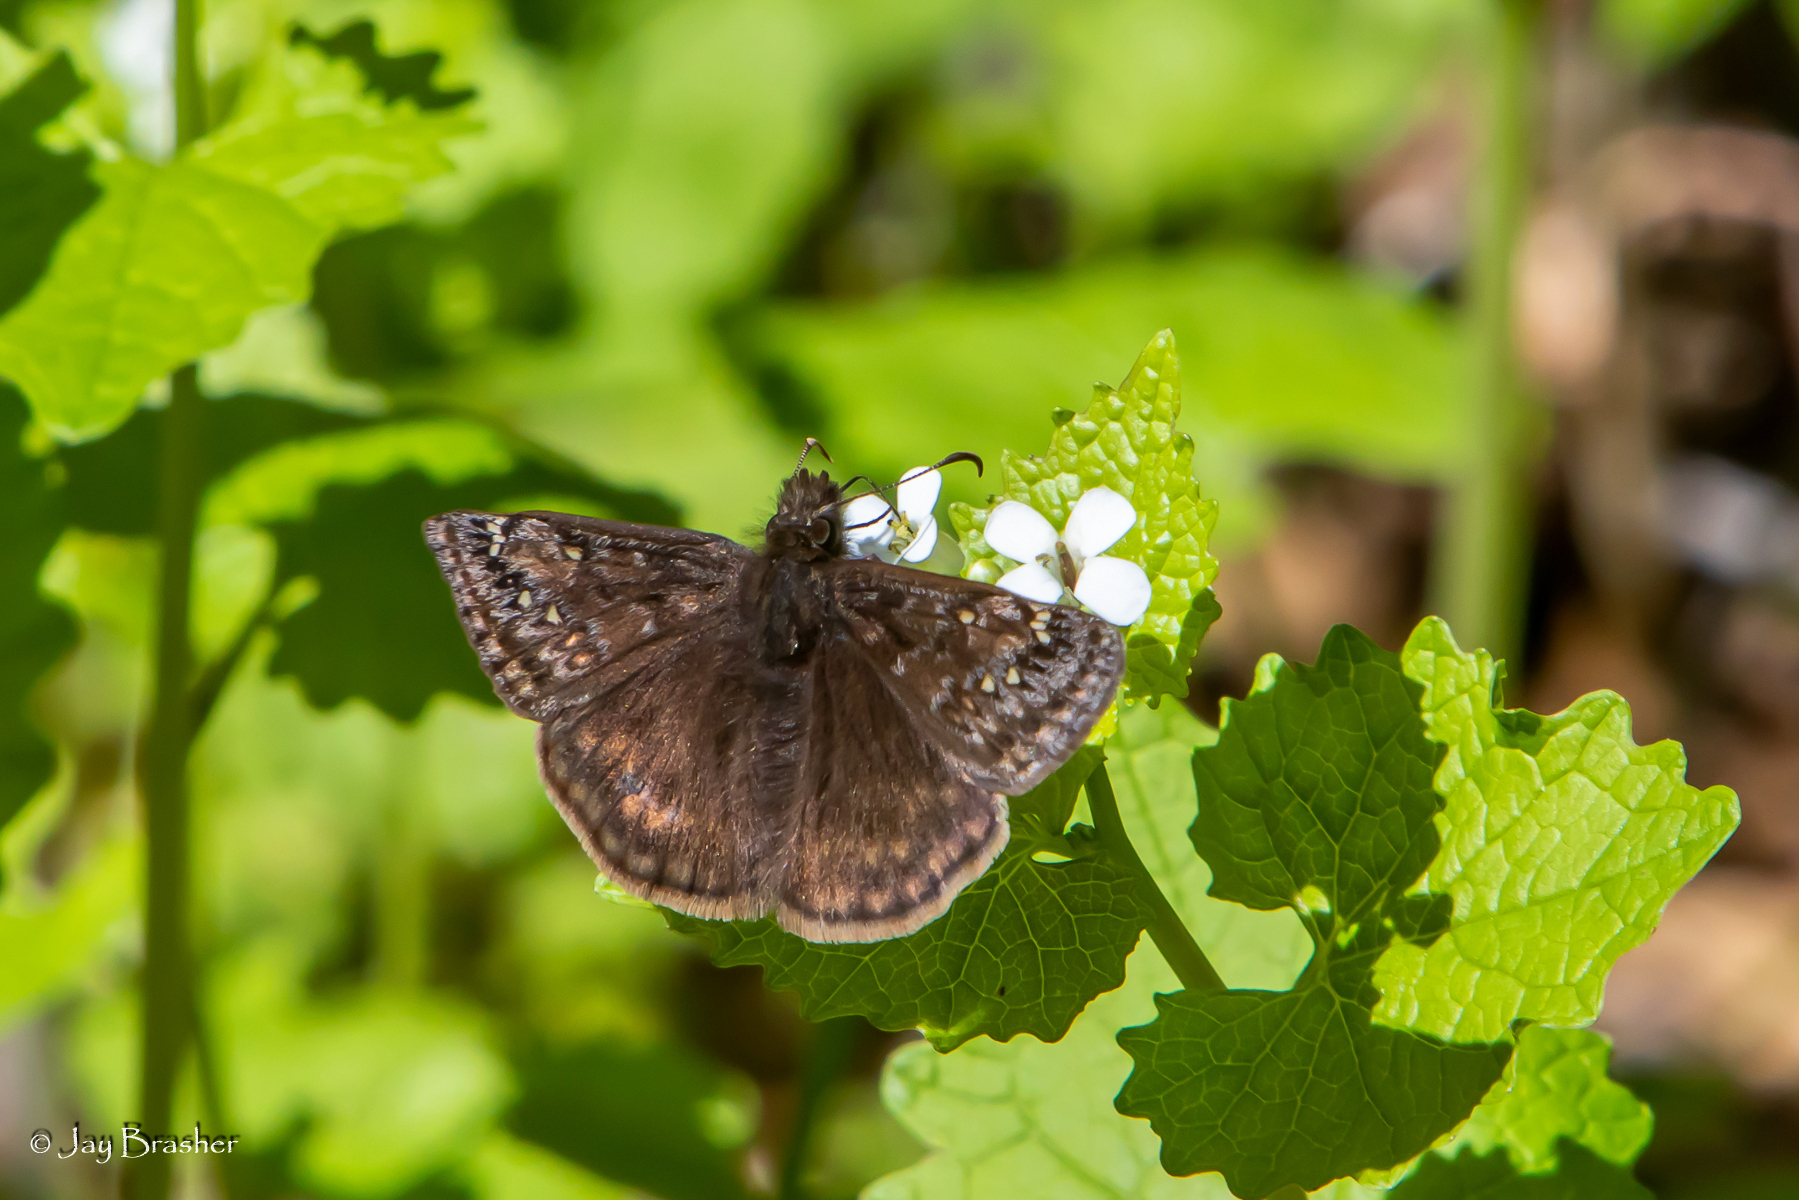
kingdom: Animalia
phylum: Arthropoda
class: Insecta
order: Lepidoptera
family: Hesperiidae
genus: Erynnis
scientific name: Erynnis juvenalis
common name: Juvenal's duskywing
